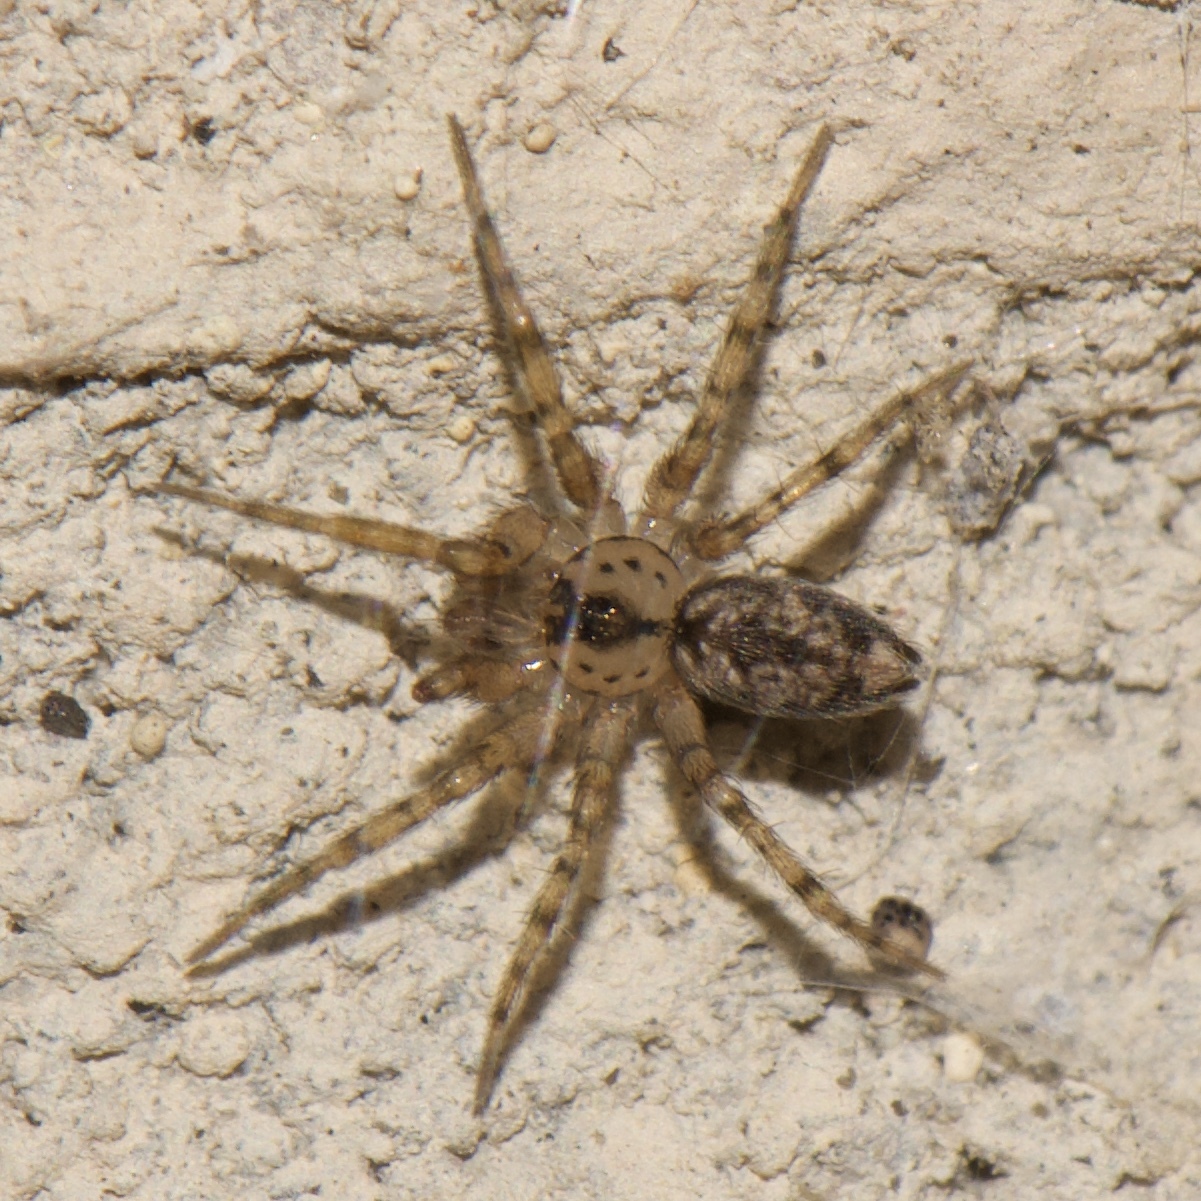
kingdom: Animalia
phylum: Arthropoda
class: Arachnida
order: Araneae
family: Oecobiidae
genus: Oecobius
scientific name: Oecobius navus
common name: Flatmesh weaver
